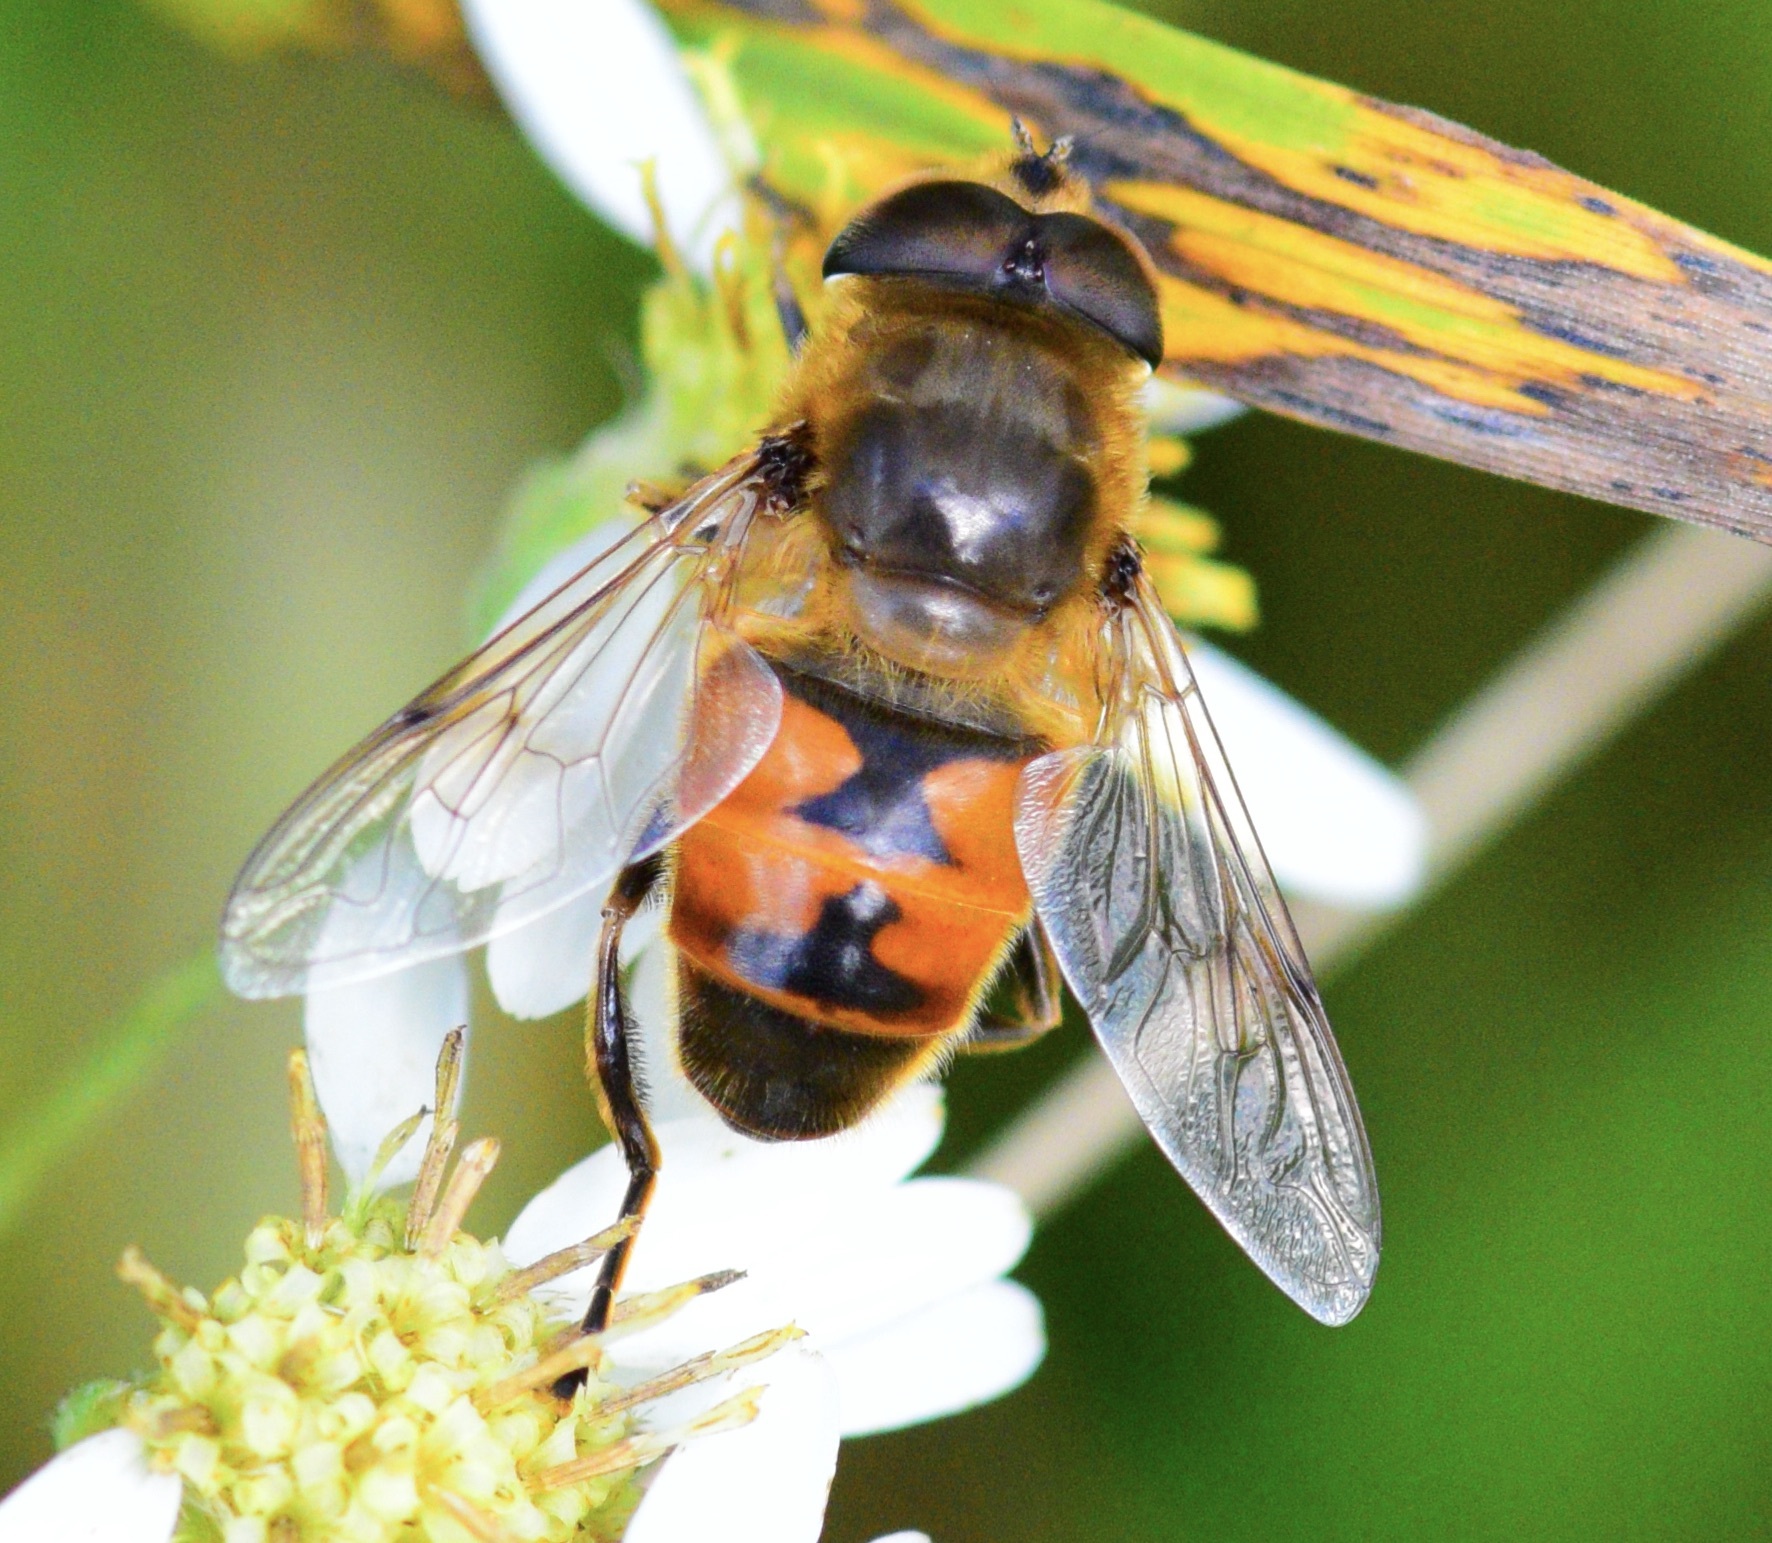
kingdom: Animalia
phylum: Arthropoda
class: Insecta
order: Diptera
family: Syrphidae
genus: Eristalis
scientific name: Eristalis tenax
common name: Drone fly
